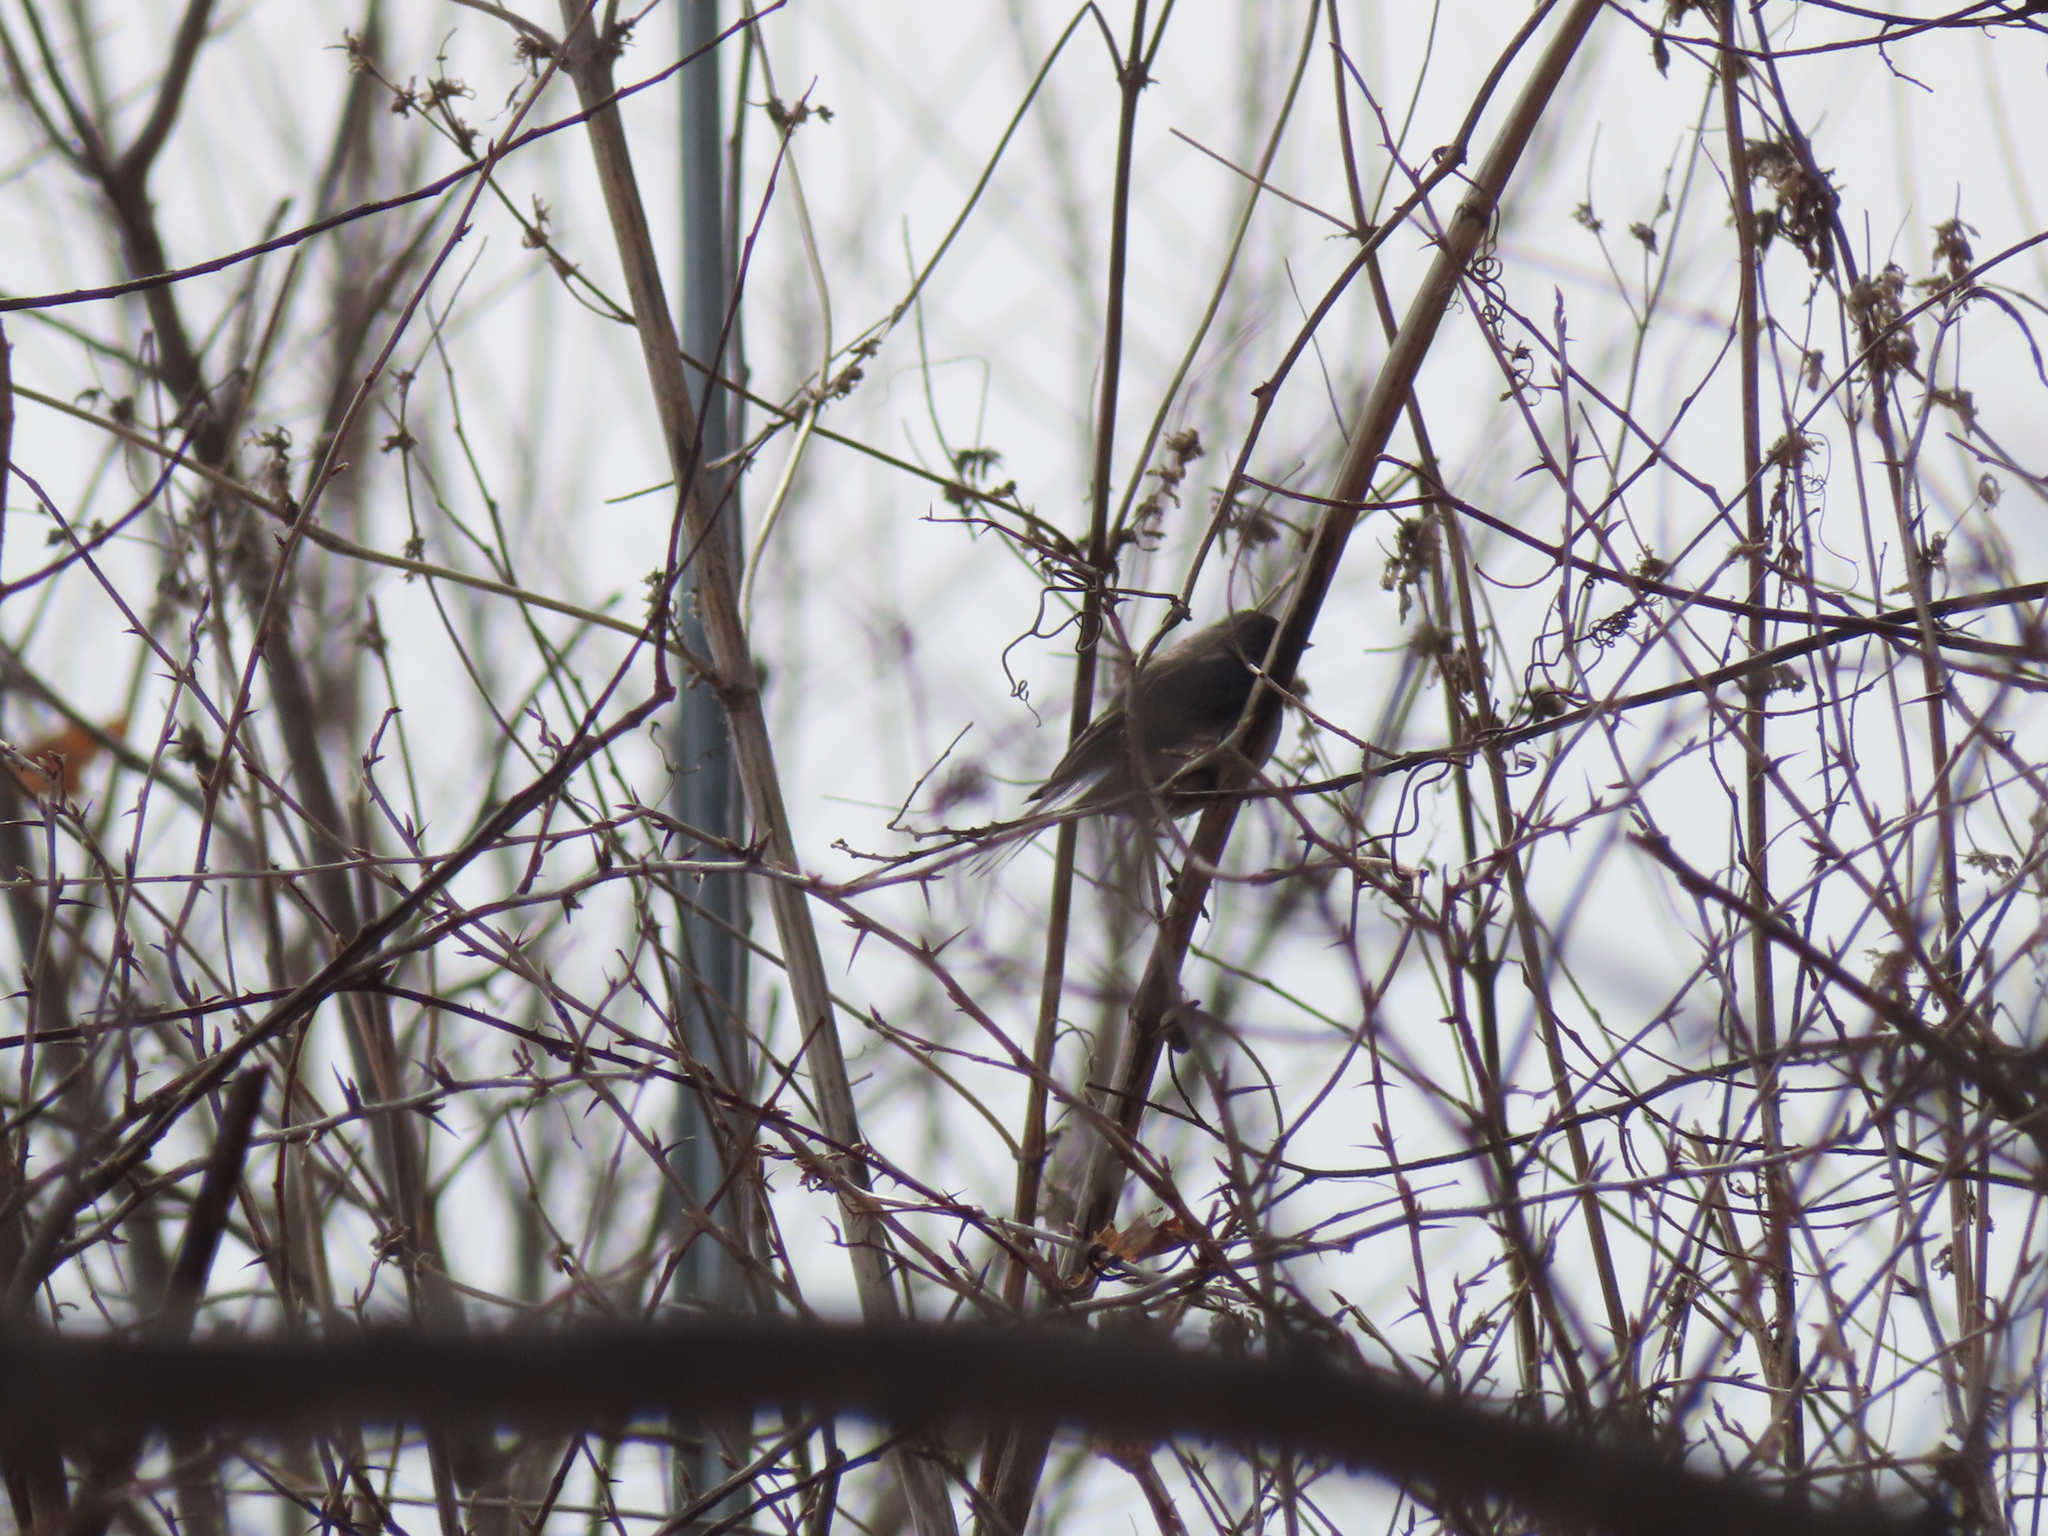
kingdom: Animalia
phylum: Chordata
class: Aves
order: Passeriformes
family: Passerellidae
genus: Junco
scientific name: Junco hyemalis
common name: Dark-eyed junco
